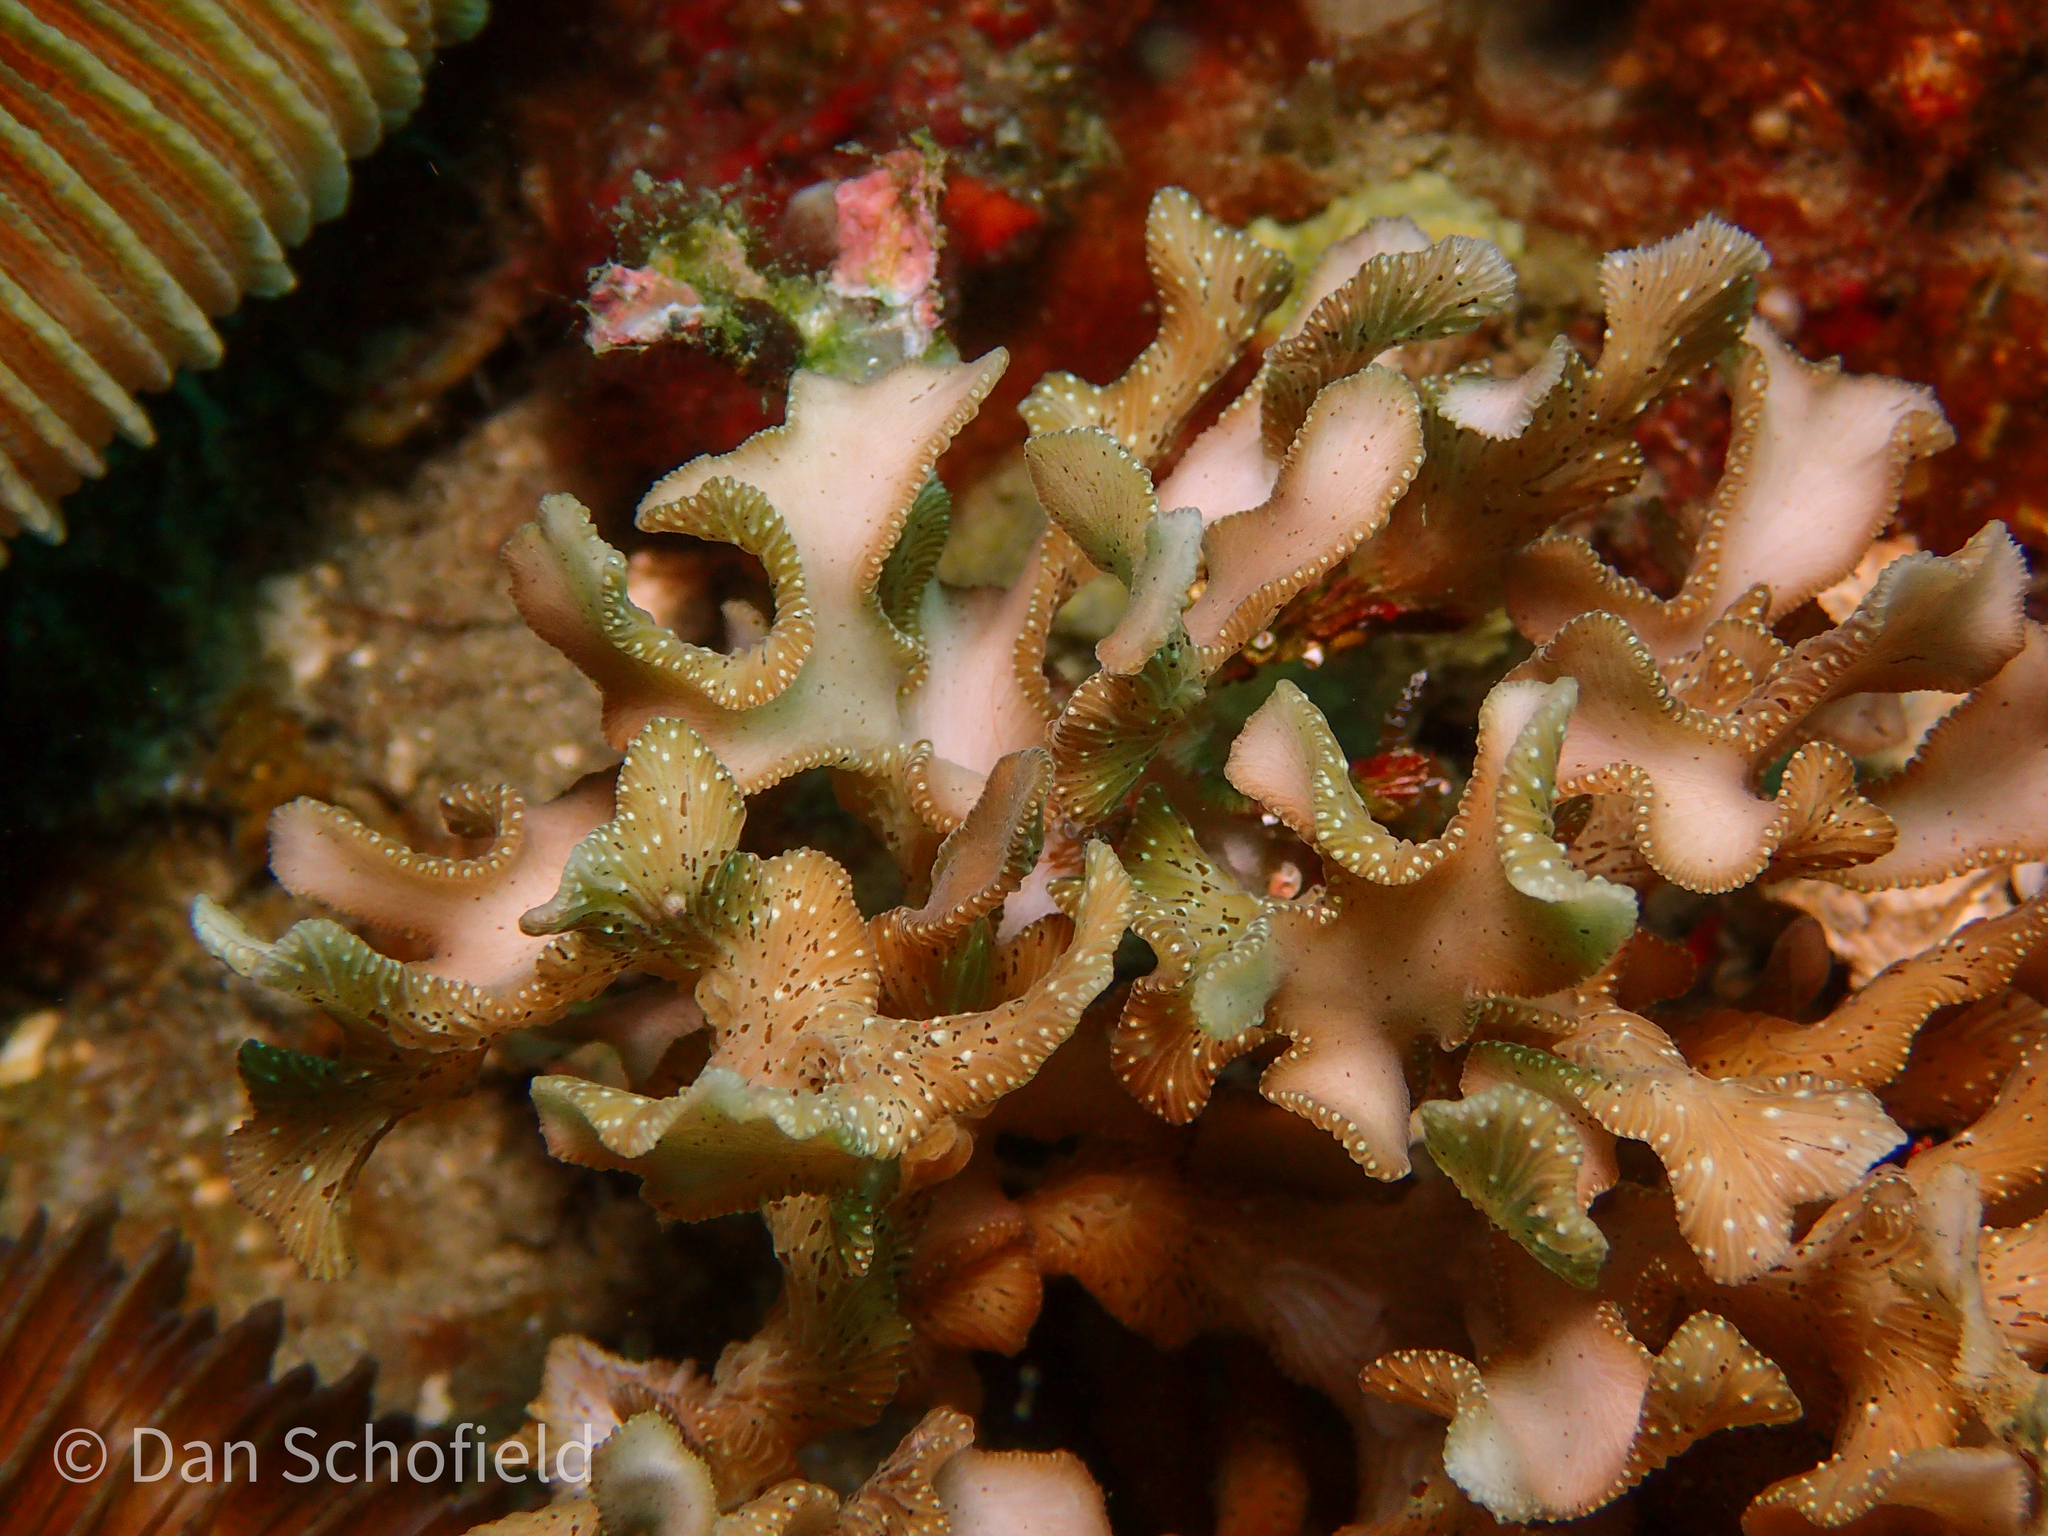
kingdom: Animalia
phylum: Cnidaria
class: Anthozoa
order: Scleractinia
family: Agariciidae
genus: Leptoseris
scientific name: Leptoseris papyracea
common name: Porcelain coral
